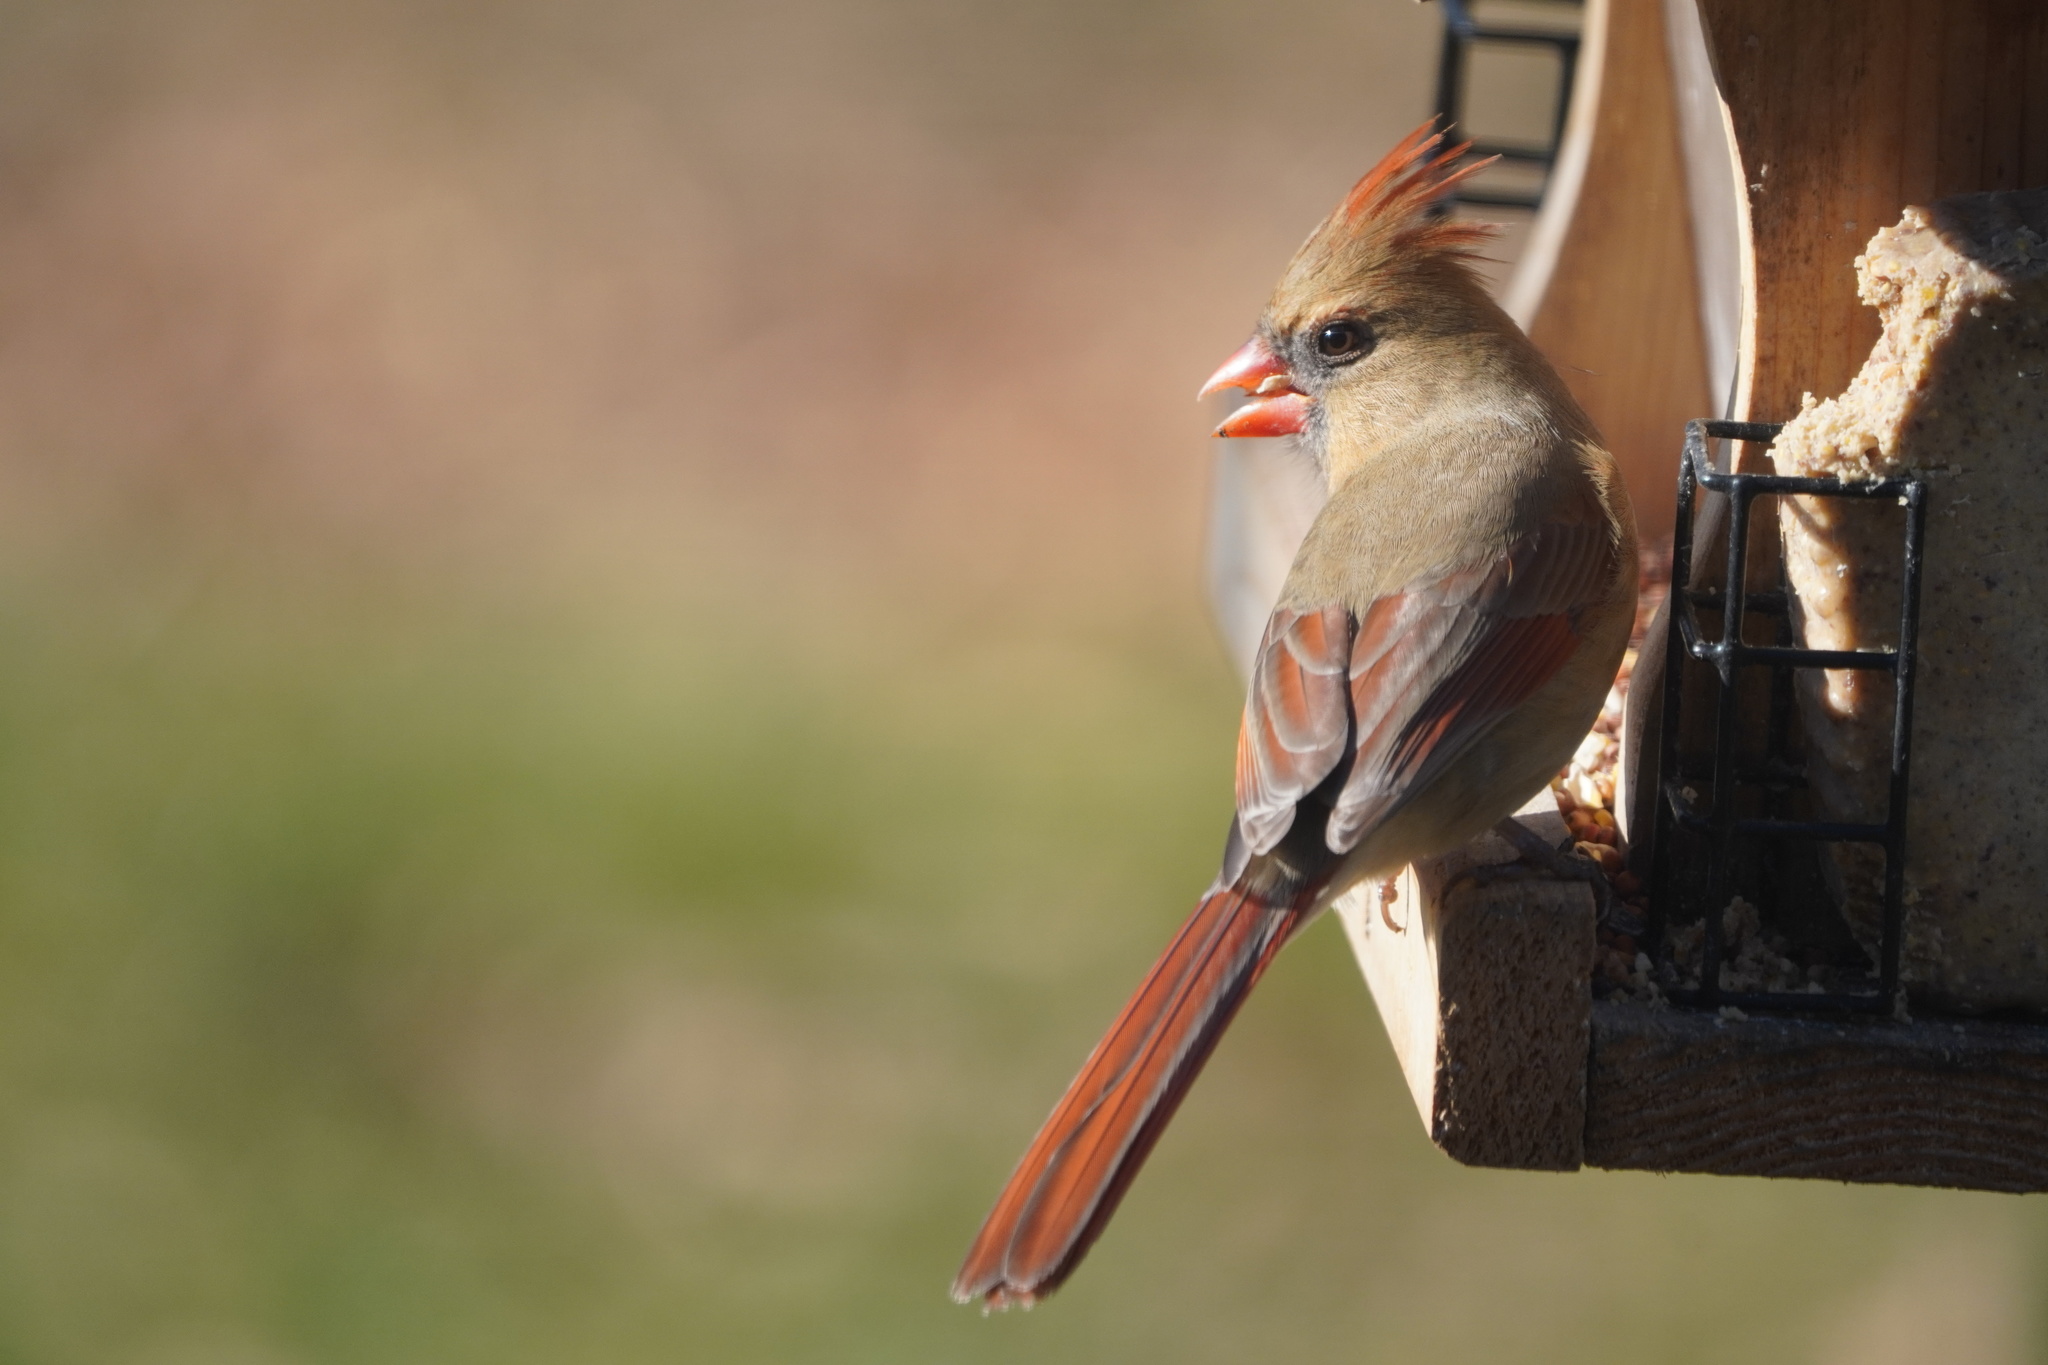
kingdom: Animalia
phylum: Chordata
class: Aves
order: Passeriformes
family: Cardinalidae
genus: Cardinalis
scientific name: Cardinalis cardinalis
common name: Northern cardinal
